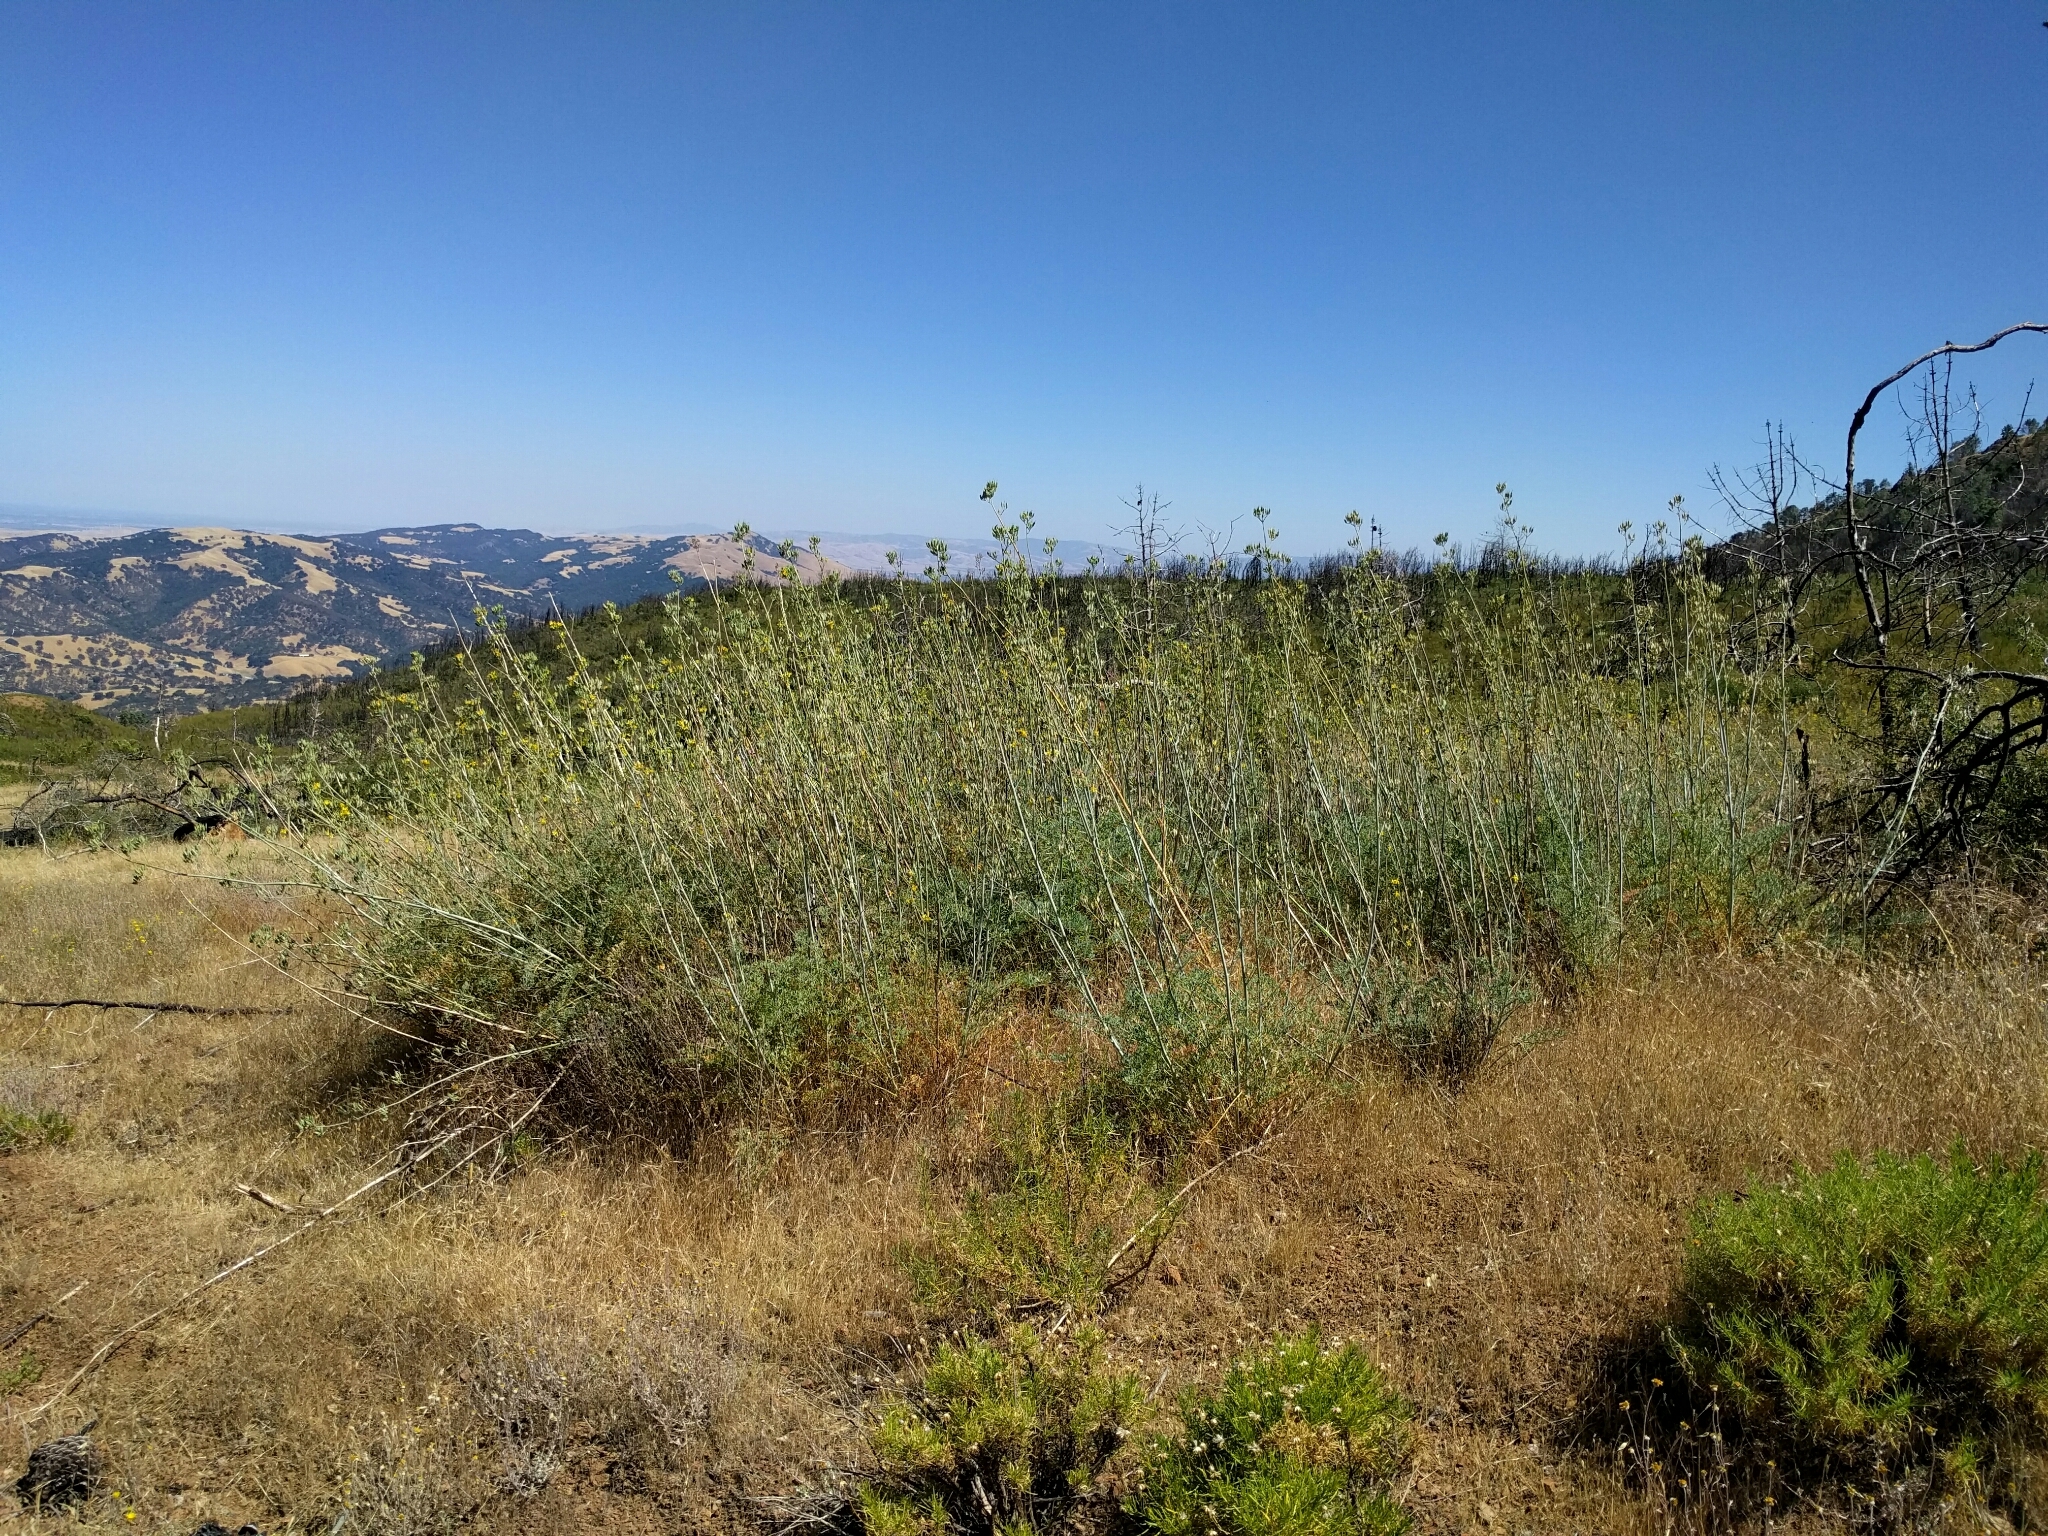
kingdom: Plantae
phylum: Tracheophyta
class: Magnoliopsida
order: Ranunculales
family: Papaveraceae
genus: Ehrendorferia
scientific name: Ehrendorferia chrysantha
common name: Golden eardrops
